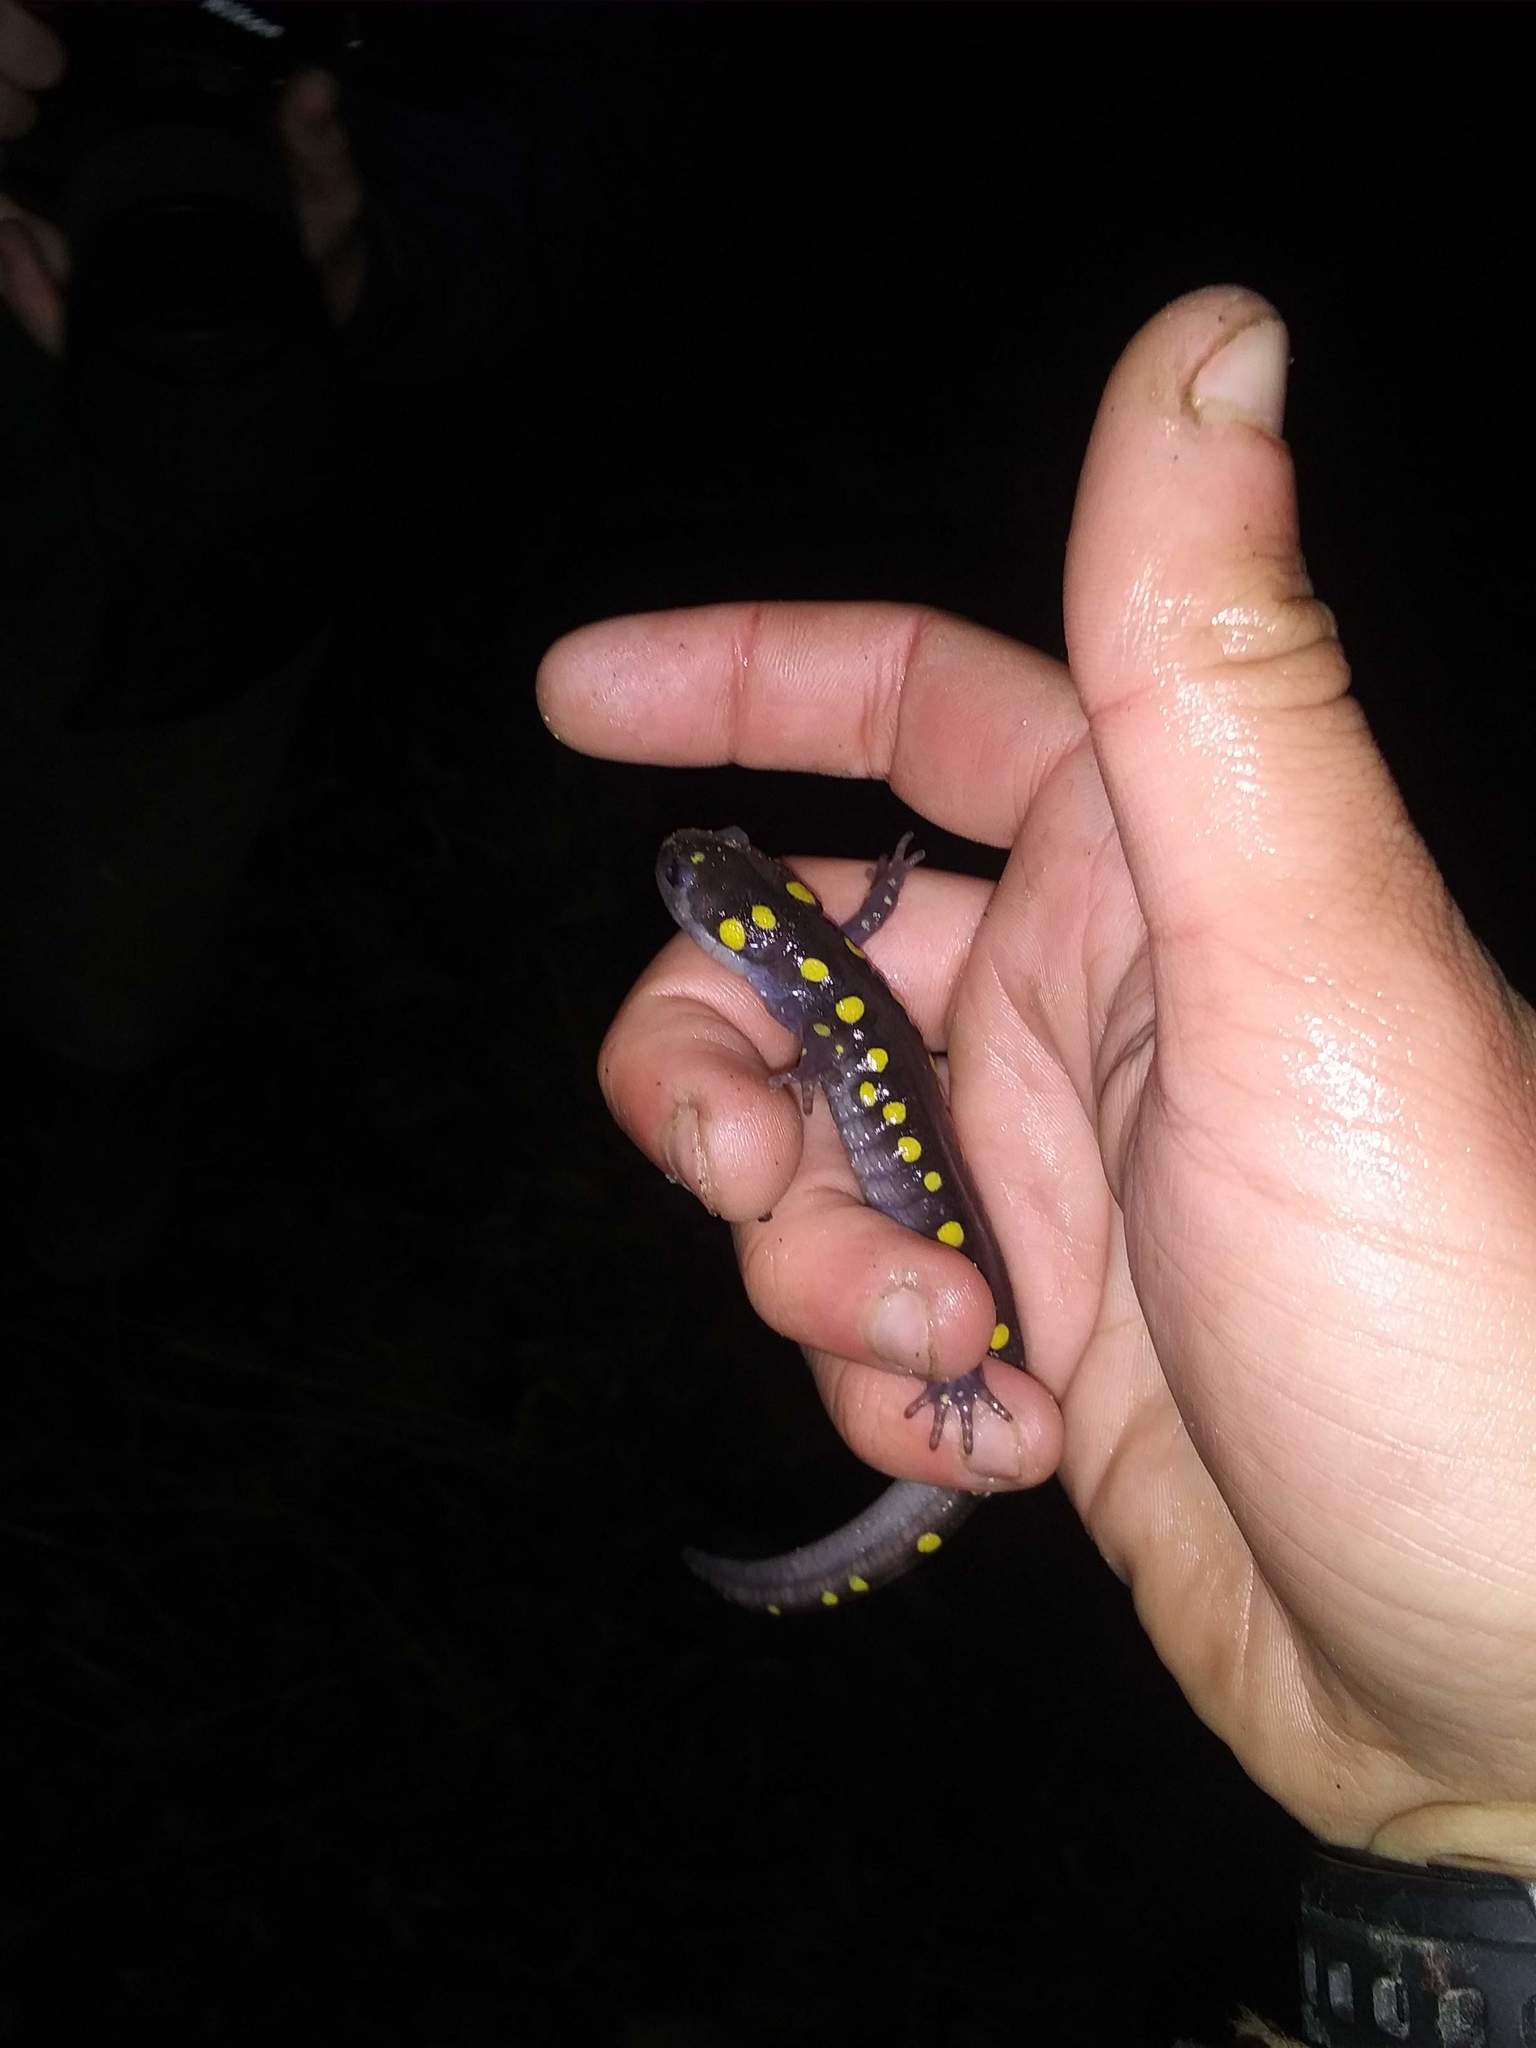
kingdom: Animalia
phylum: Chordata
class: Amphibia
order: Caudata
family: Ambystomatidae
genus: Ambystoma
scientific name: Ambystoma maculatum
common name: Spotted salamander
